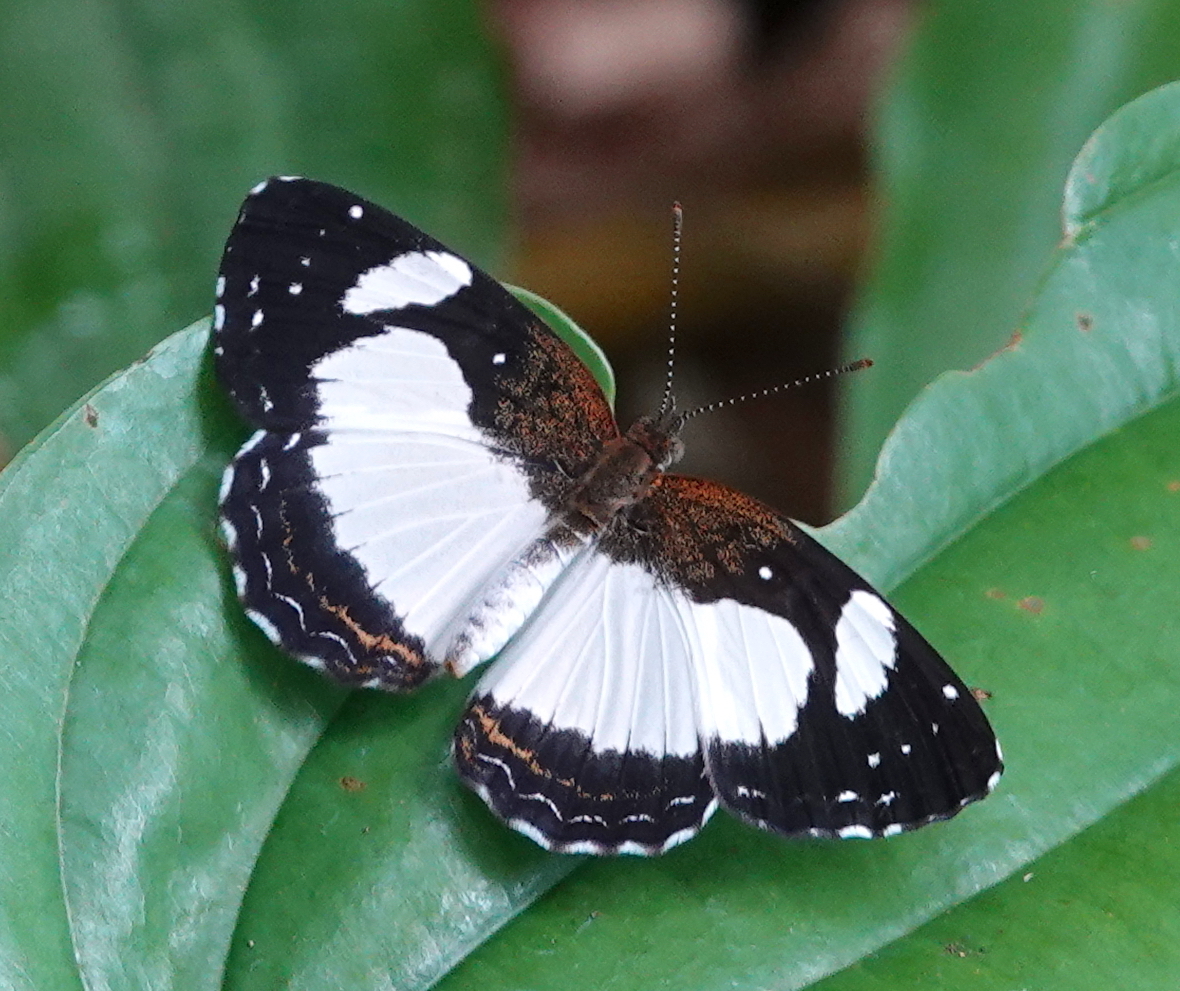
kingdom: Animalia
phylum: Arthropoda
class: Insecta
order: Lepidoptera
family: Nymphalidae
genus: Janatella
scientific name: Janatella leucodesma
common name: Whitened crescent
